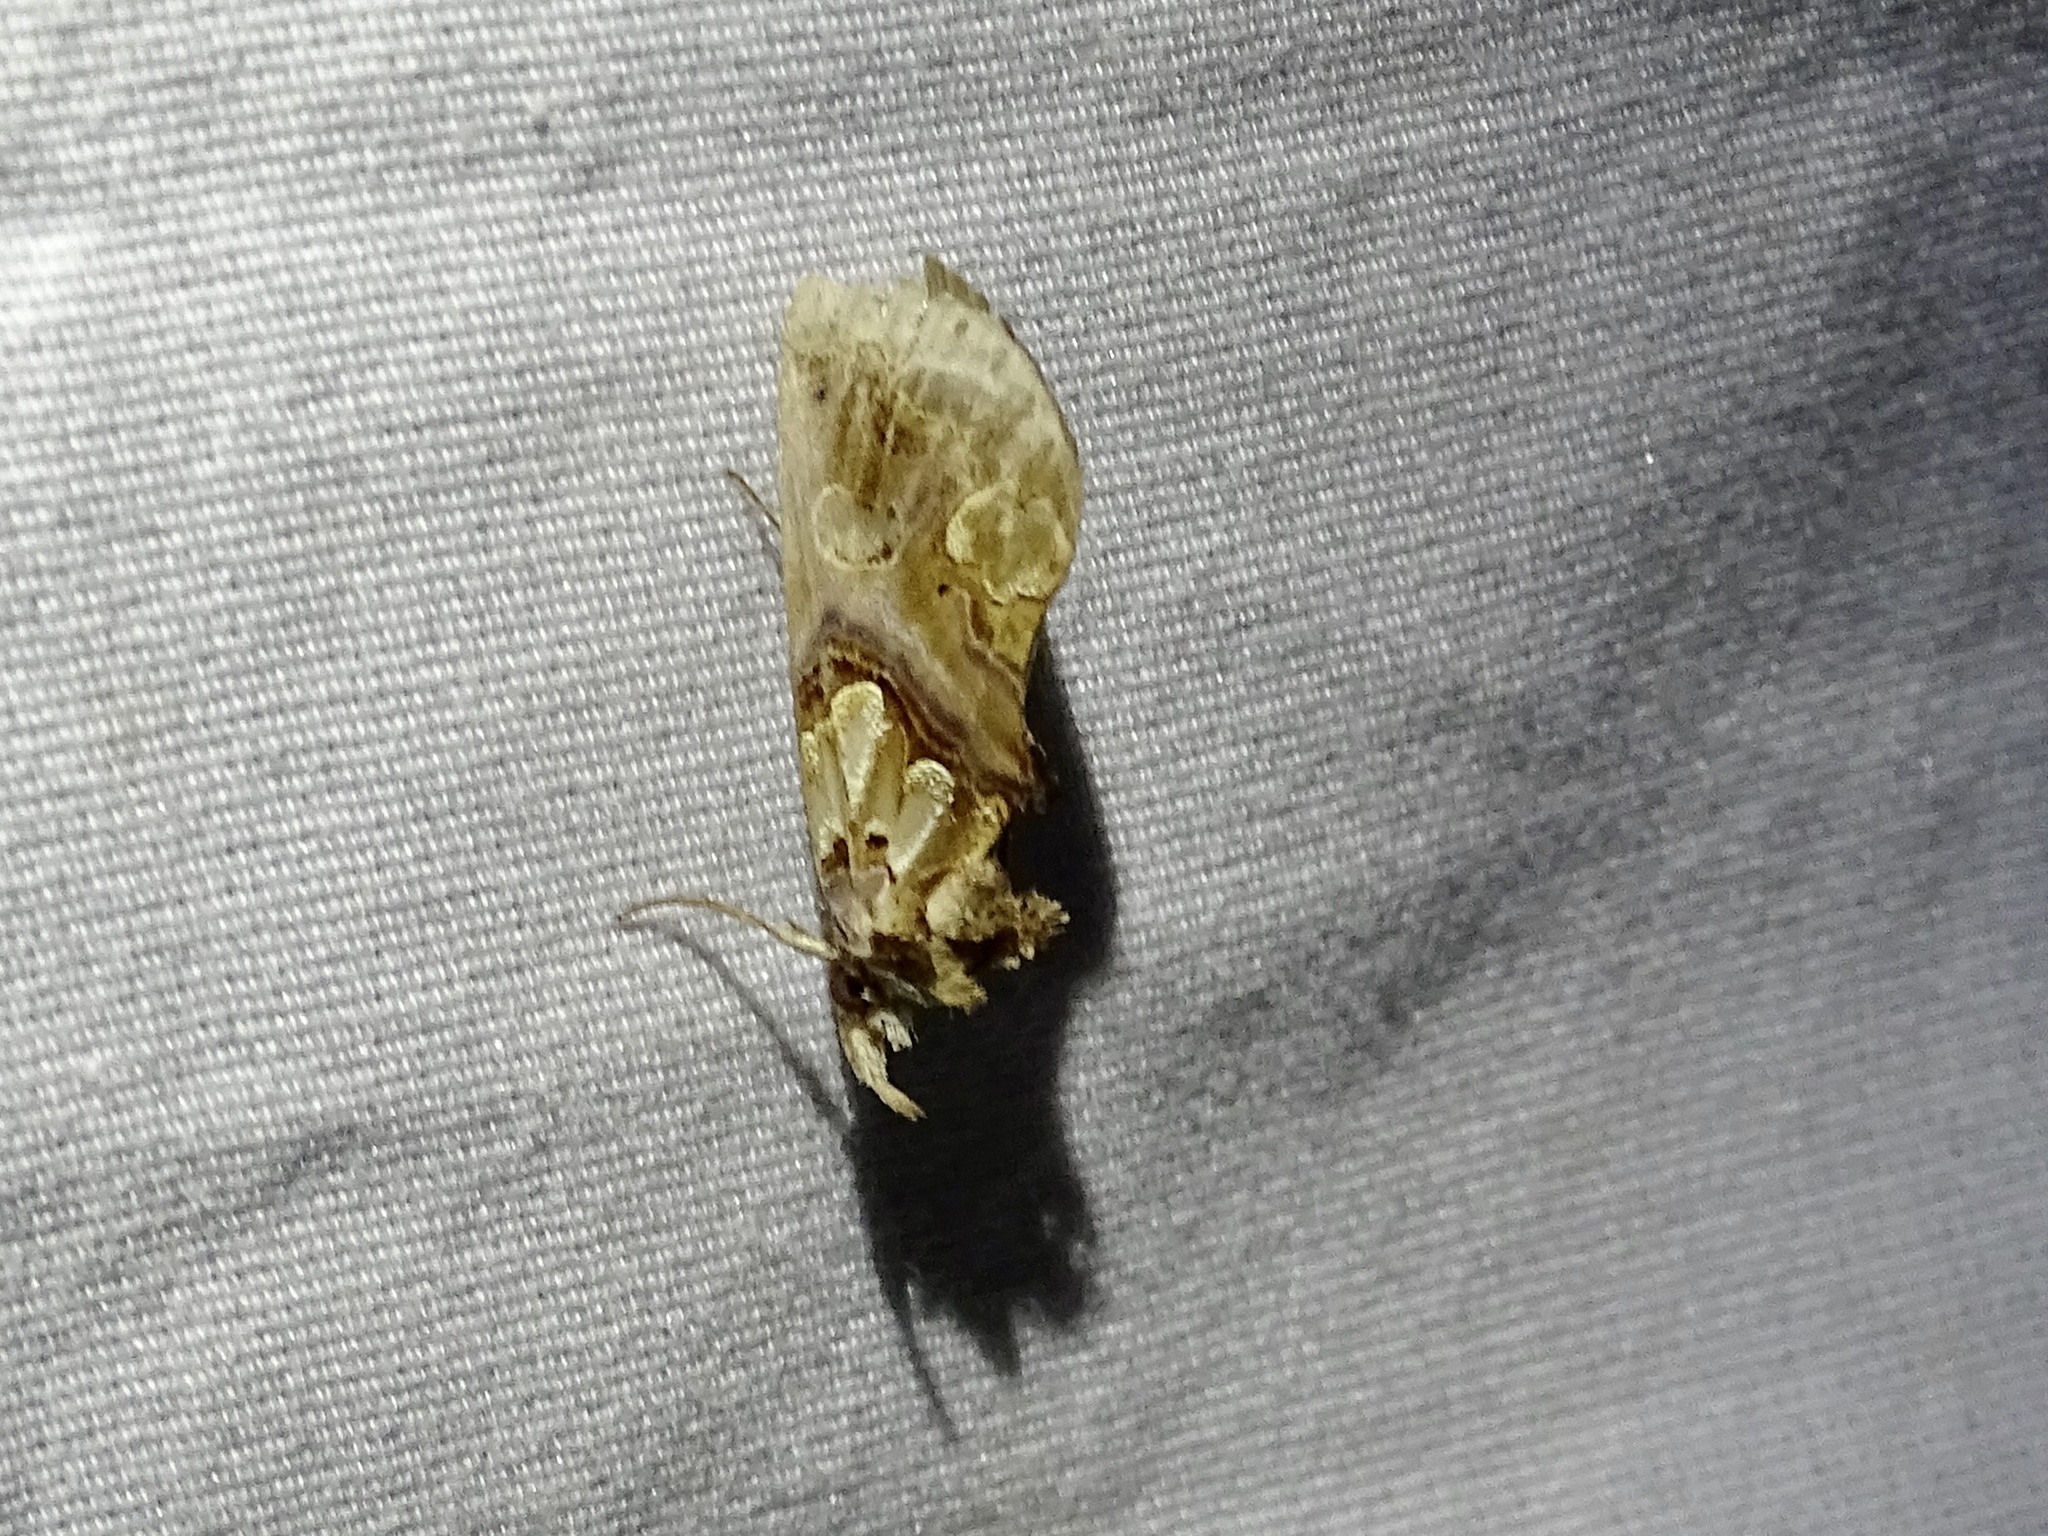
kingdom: Animalia
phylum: Arthropoda
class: Insecta
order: Lepidoptera
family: Erebidae
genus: Plusiodonta
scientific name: Plusiodonta compressipalpis
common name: Moonseed moth
